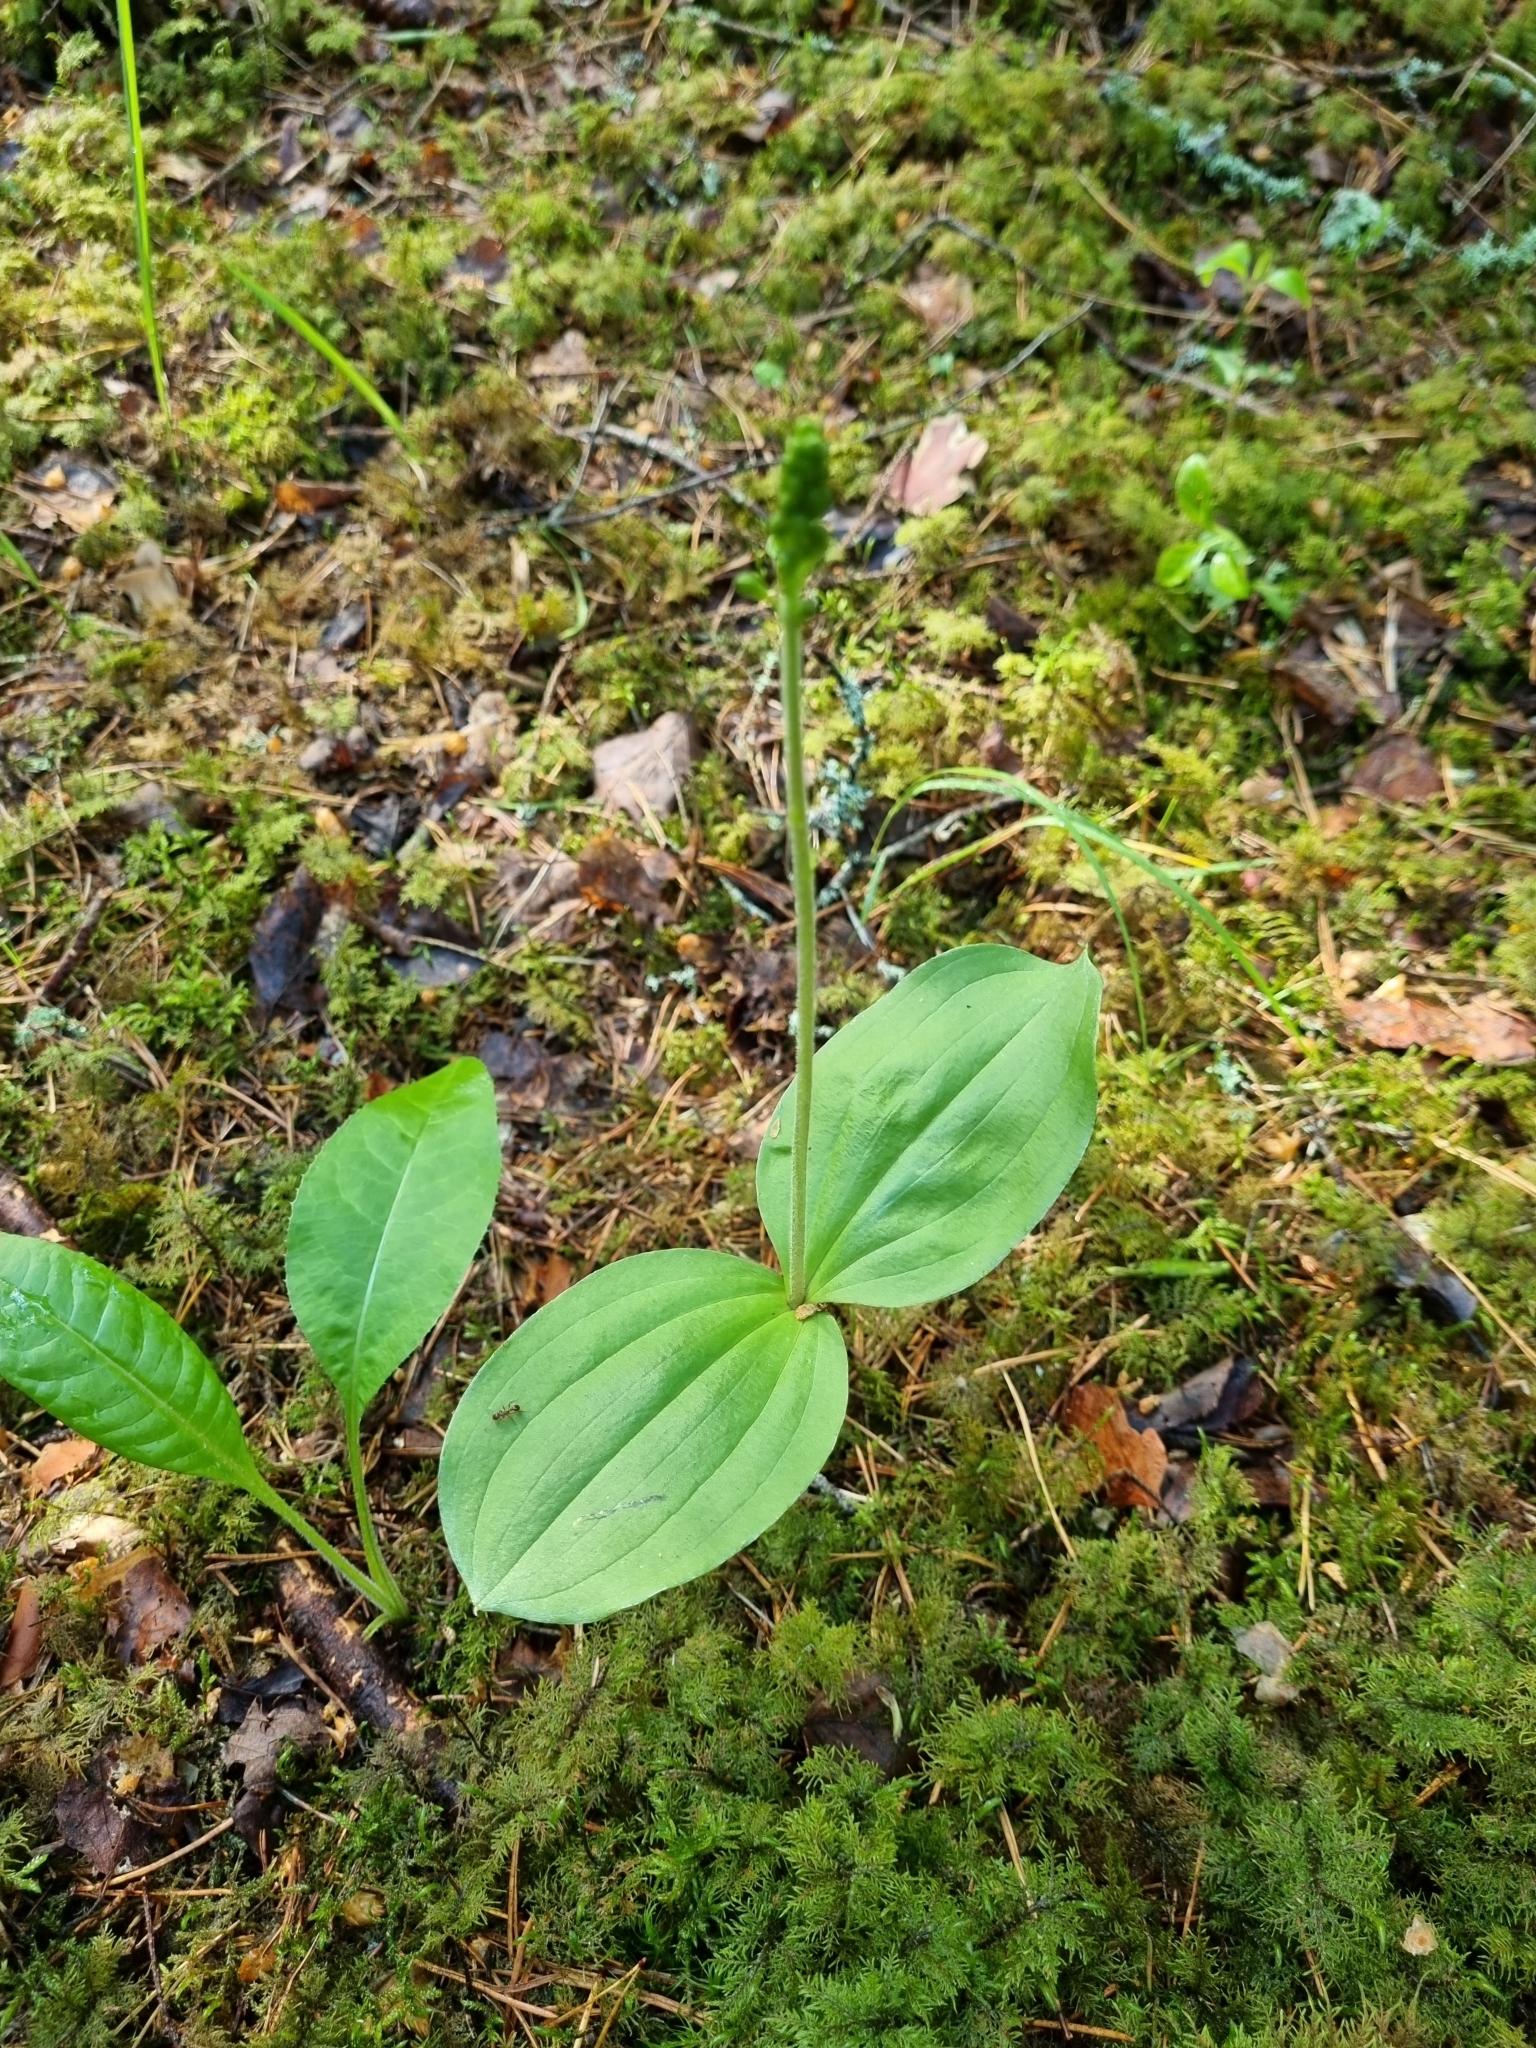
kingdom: Plantae
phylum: Tracheophyta
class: Liliopsida
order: Asparagales
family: Orchidaceae
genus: Neottia
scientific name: Neottia ovata
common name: Common twayblade
